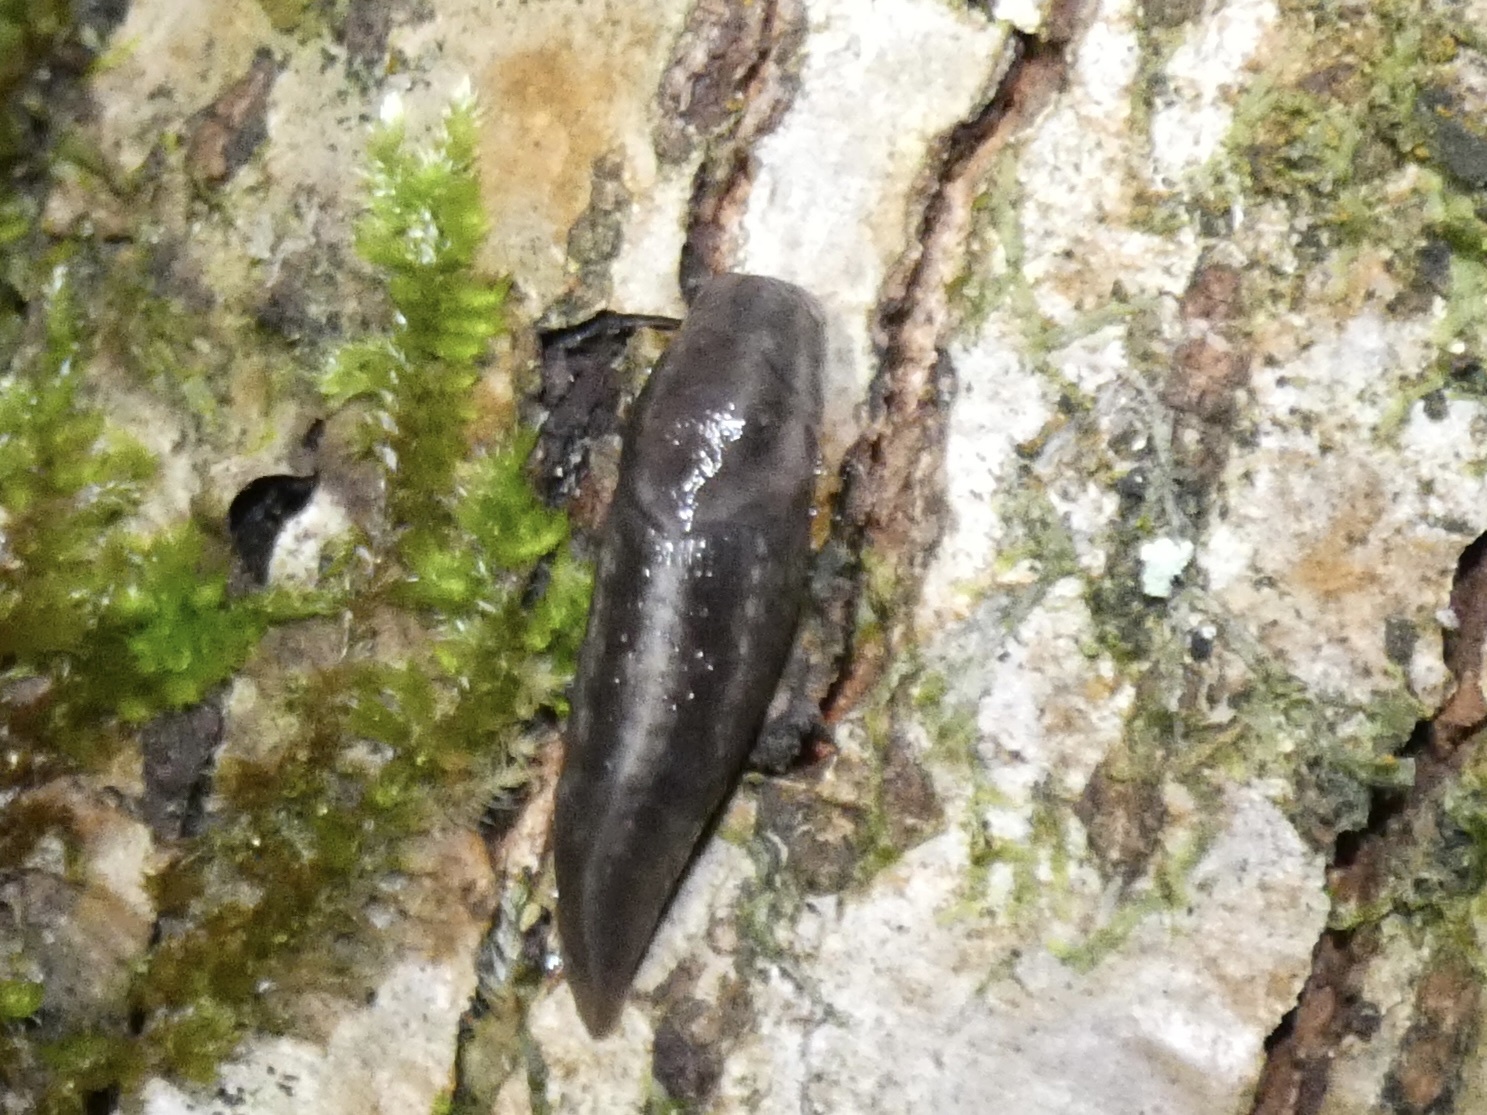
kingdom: Animalia
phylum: Mollusca
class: Gastropoda
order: Stylommatophora
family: Limacidae
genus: Lehmannia
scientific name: Lehmannia marginata
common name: Tree slug
